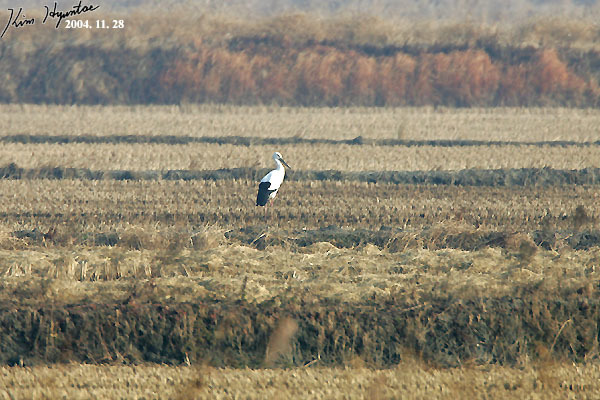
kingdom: Animalia
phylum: Chordata
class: Aves
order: Ciconiiformes
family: Ciconiidae
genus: Ciconia
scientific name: Ciconia boyciana
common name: Oriental stork
